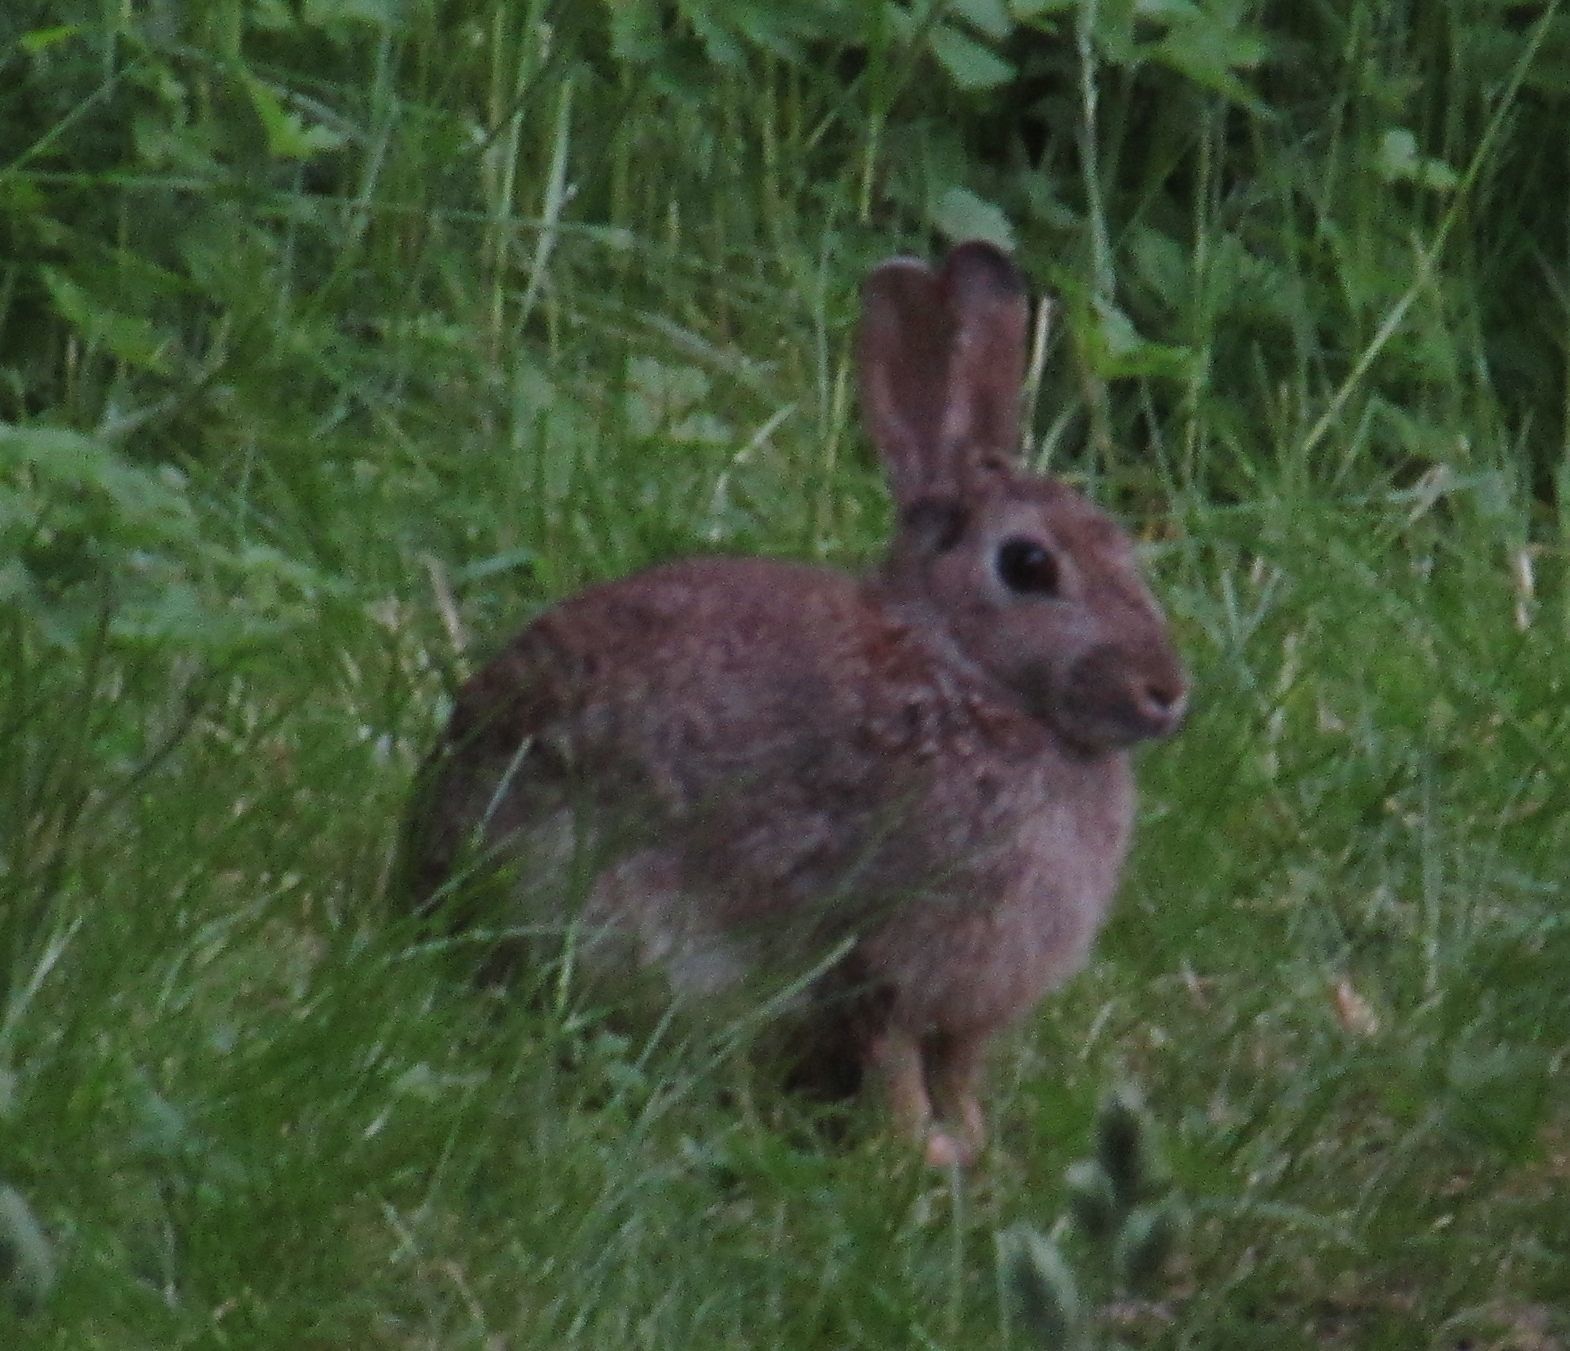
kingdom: Animalia
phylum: Chordata
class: Mammalia
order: Lagomorpha
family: Leporidae
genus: Oryctolagus
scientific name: Oryctolagus cuniculus
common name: European rabbit
